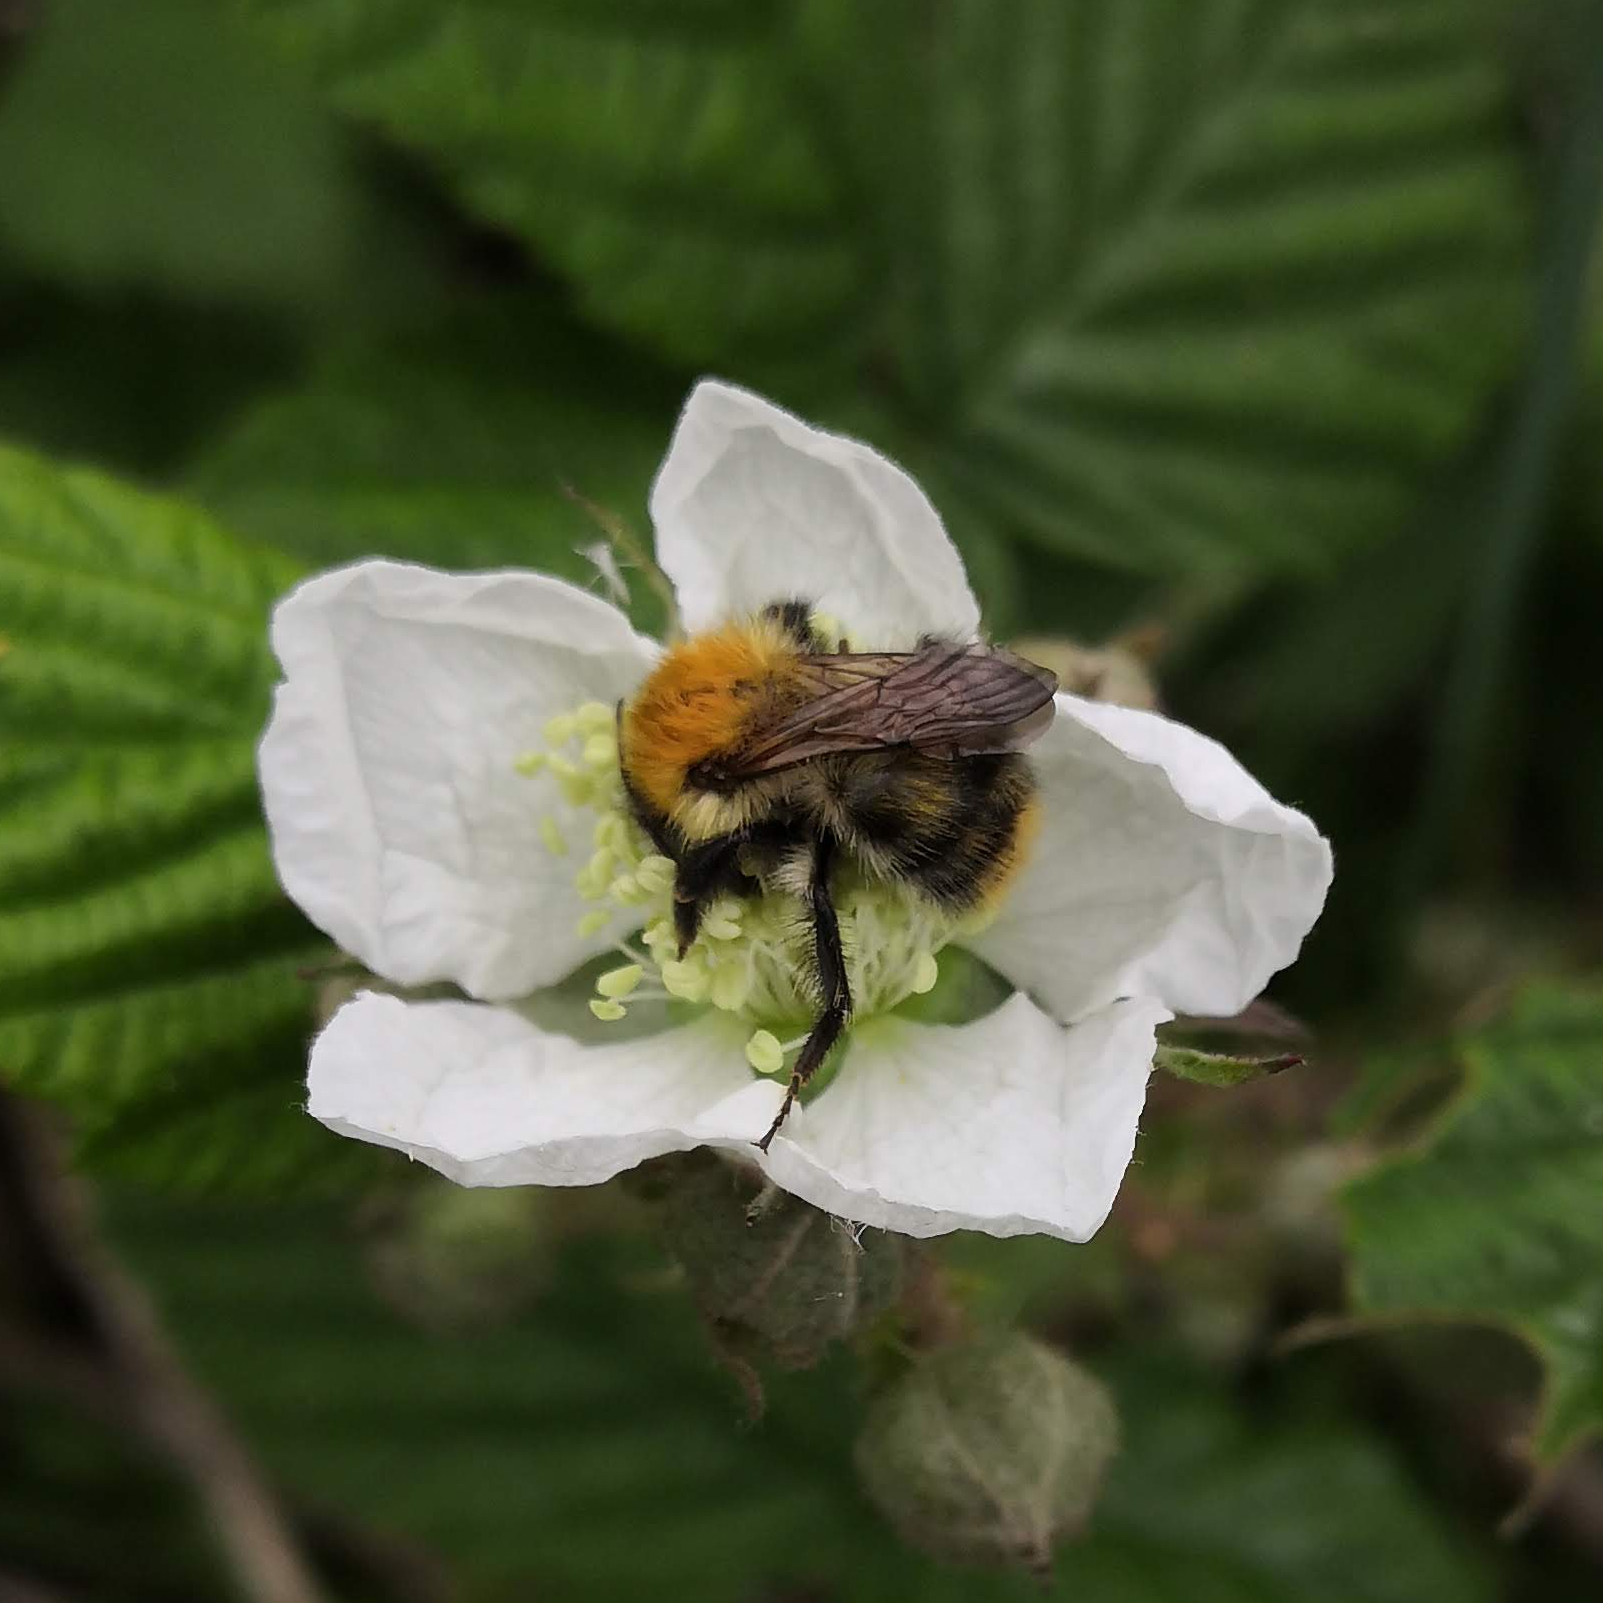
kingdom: Animalia
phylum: Arthropoda
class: Insecta
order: Hymenoptera
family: Apidae
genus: Bombus
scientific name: Bombus pascuorum
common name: Common carder bee
